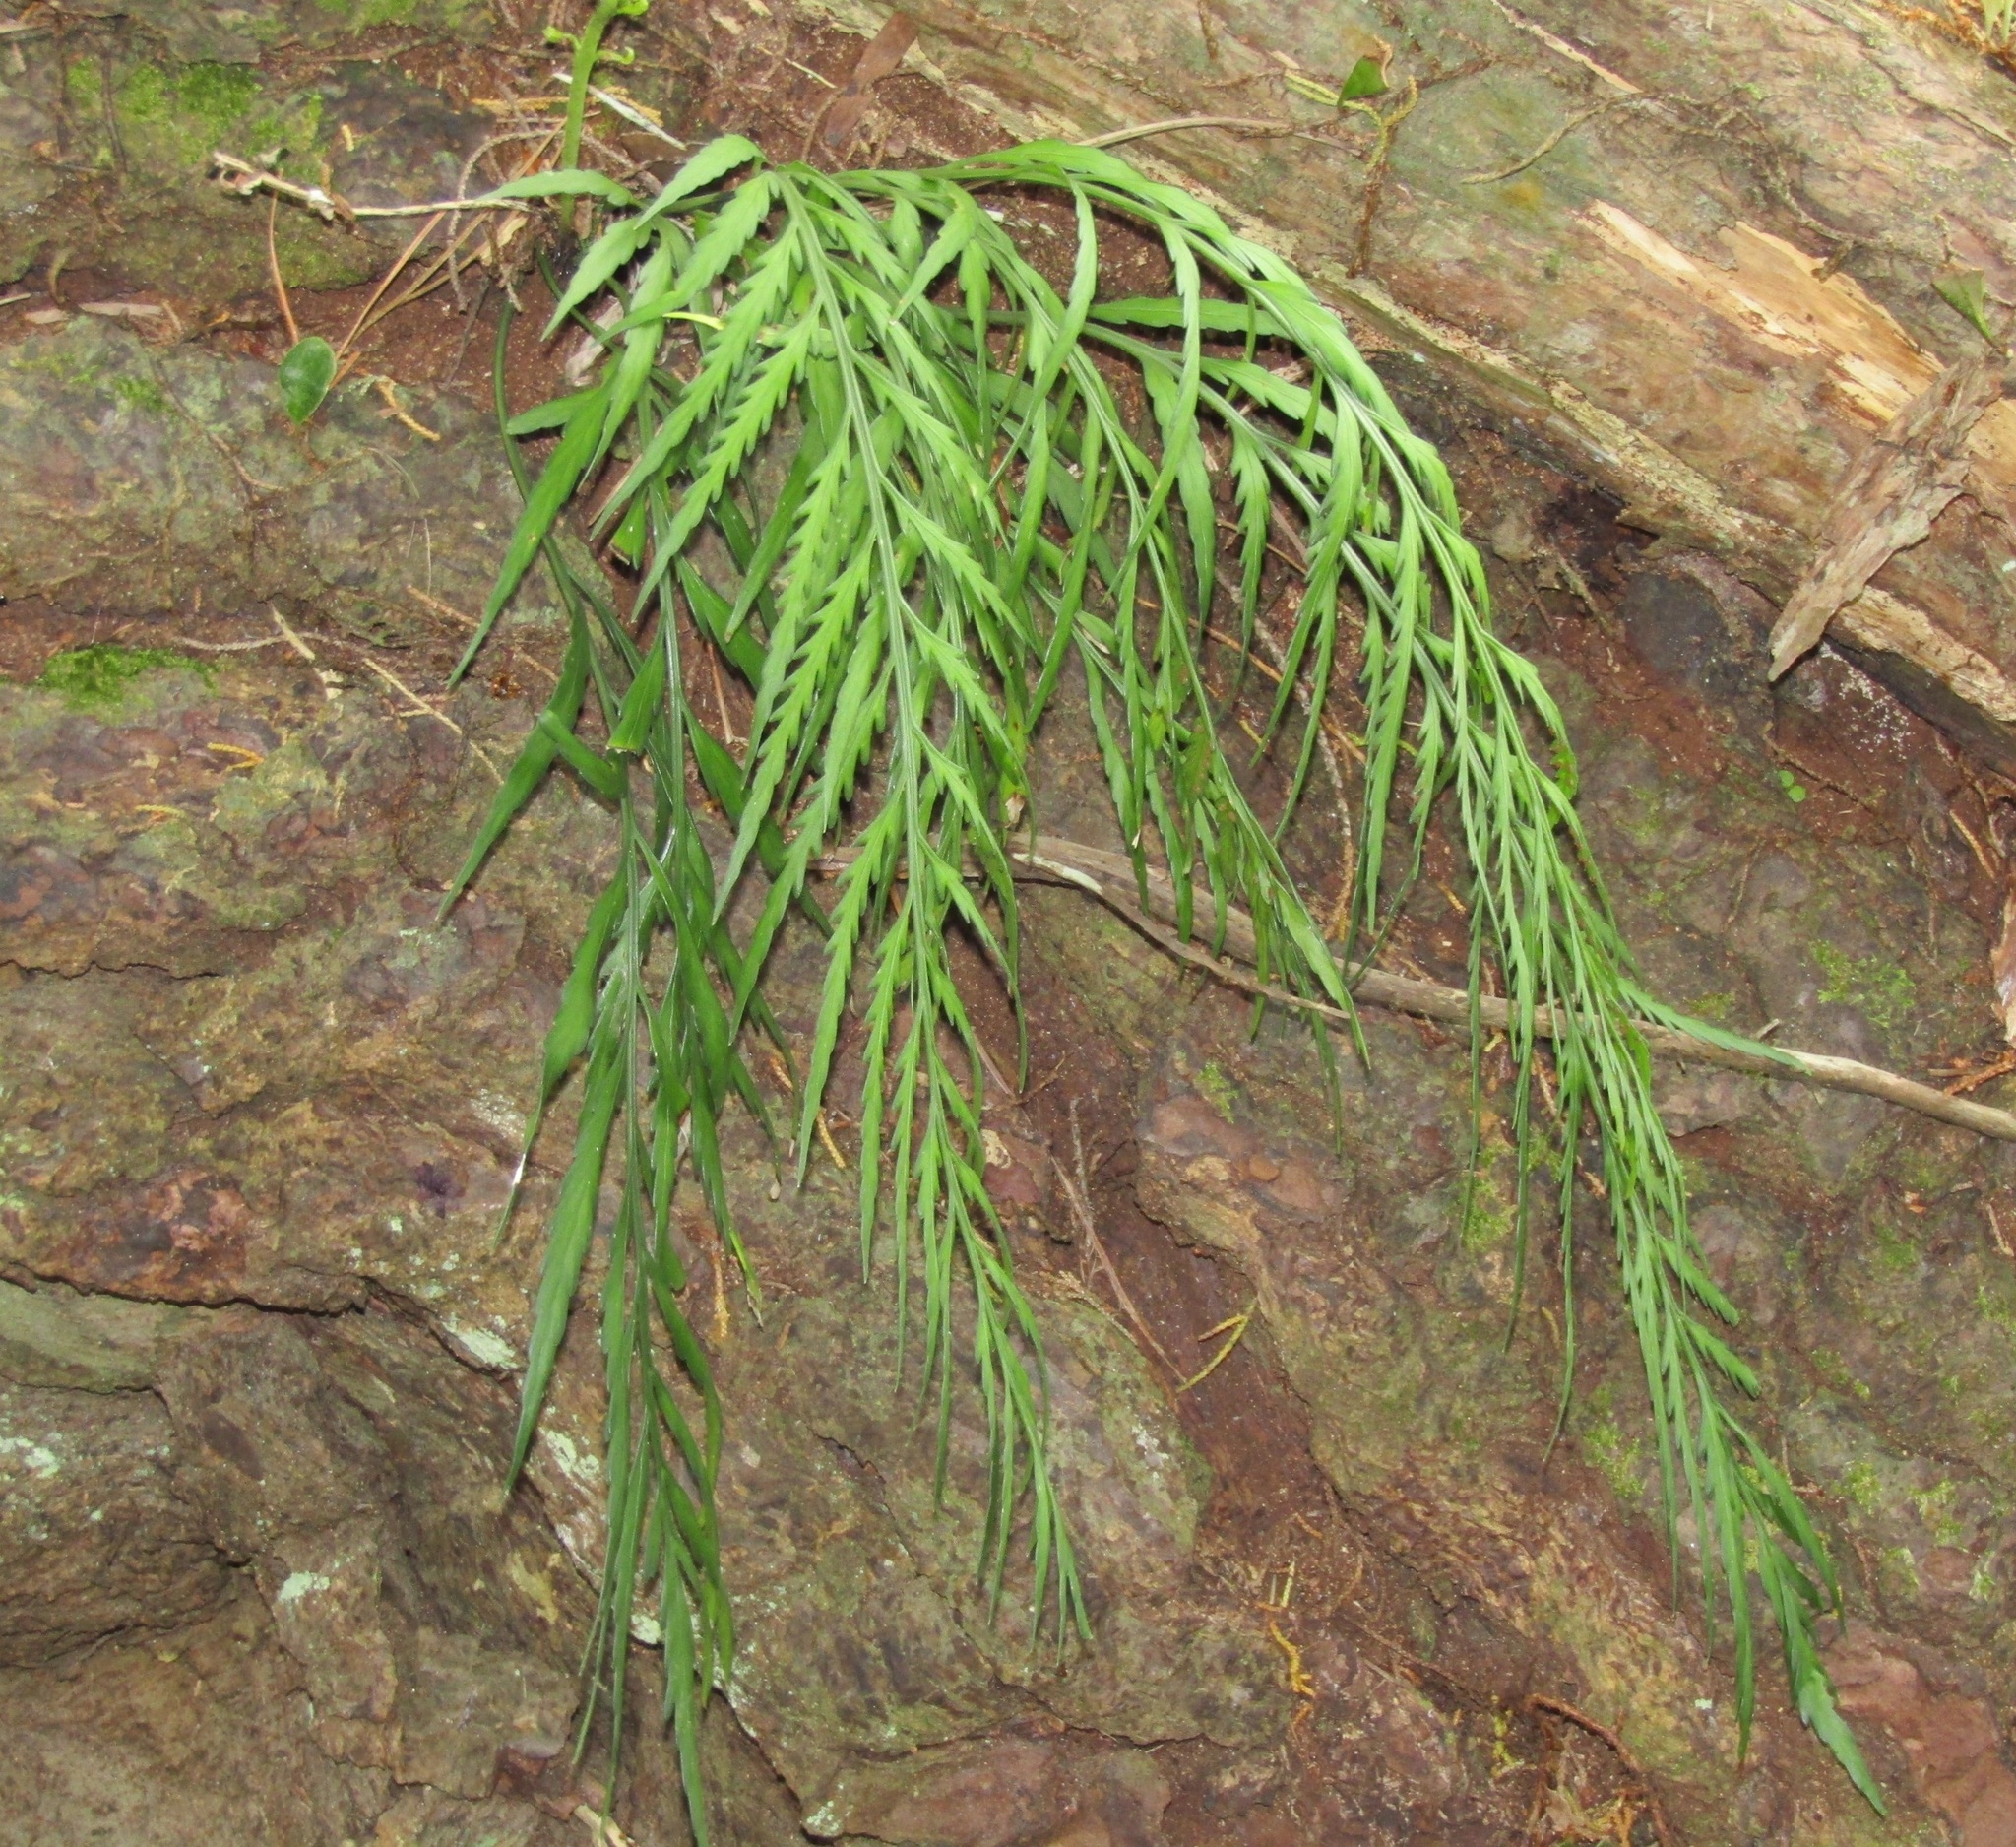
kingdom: Plantae
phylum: Tracheophyta
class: Polypodiopsida
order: Polypodiales
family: Aspleniaceae
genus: Asplenium
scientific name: Asplenium flaccidum
